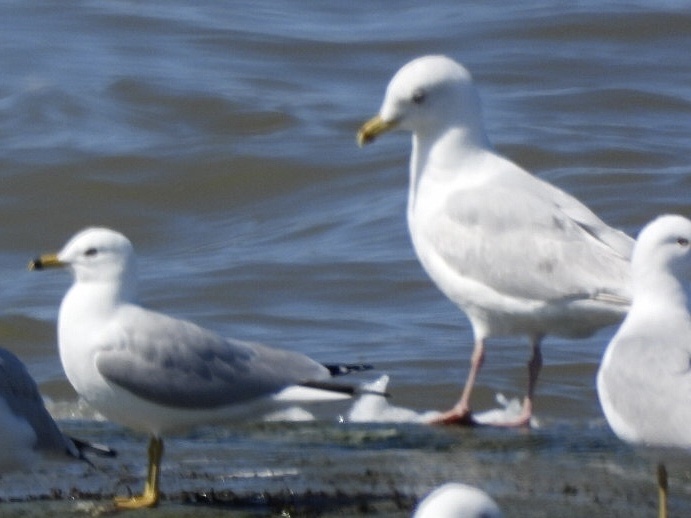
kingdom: Animalia
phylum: Chordata
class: Aves
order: Charadriiformes
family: Laridae
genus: Larus
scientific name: Larus glaucoides
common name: Iceland gull
